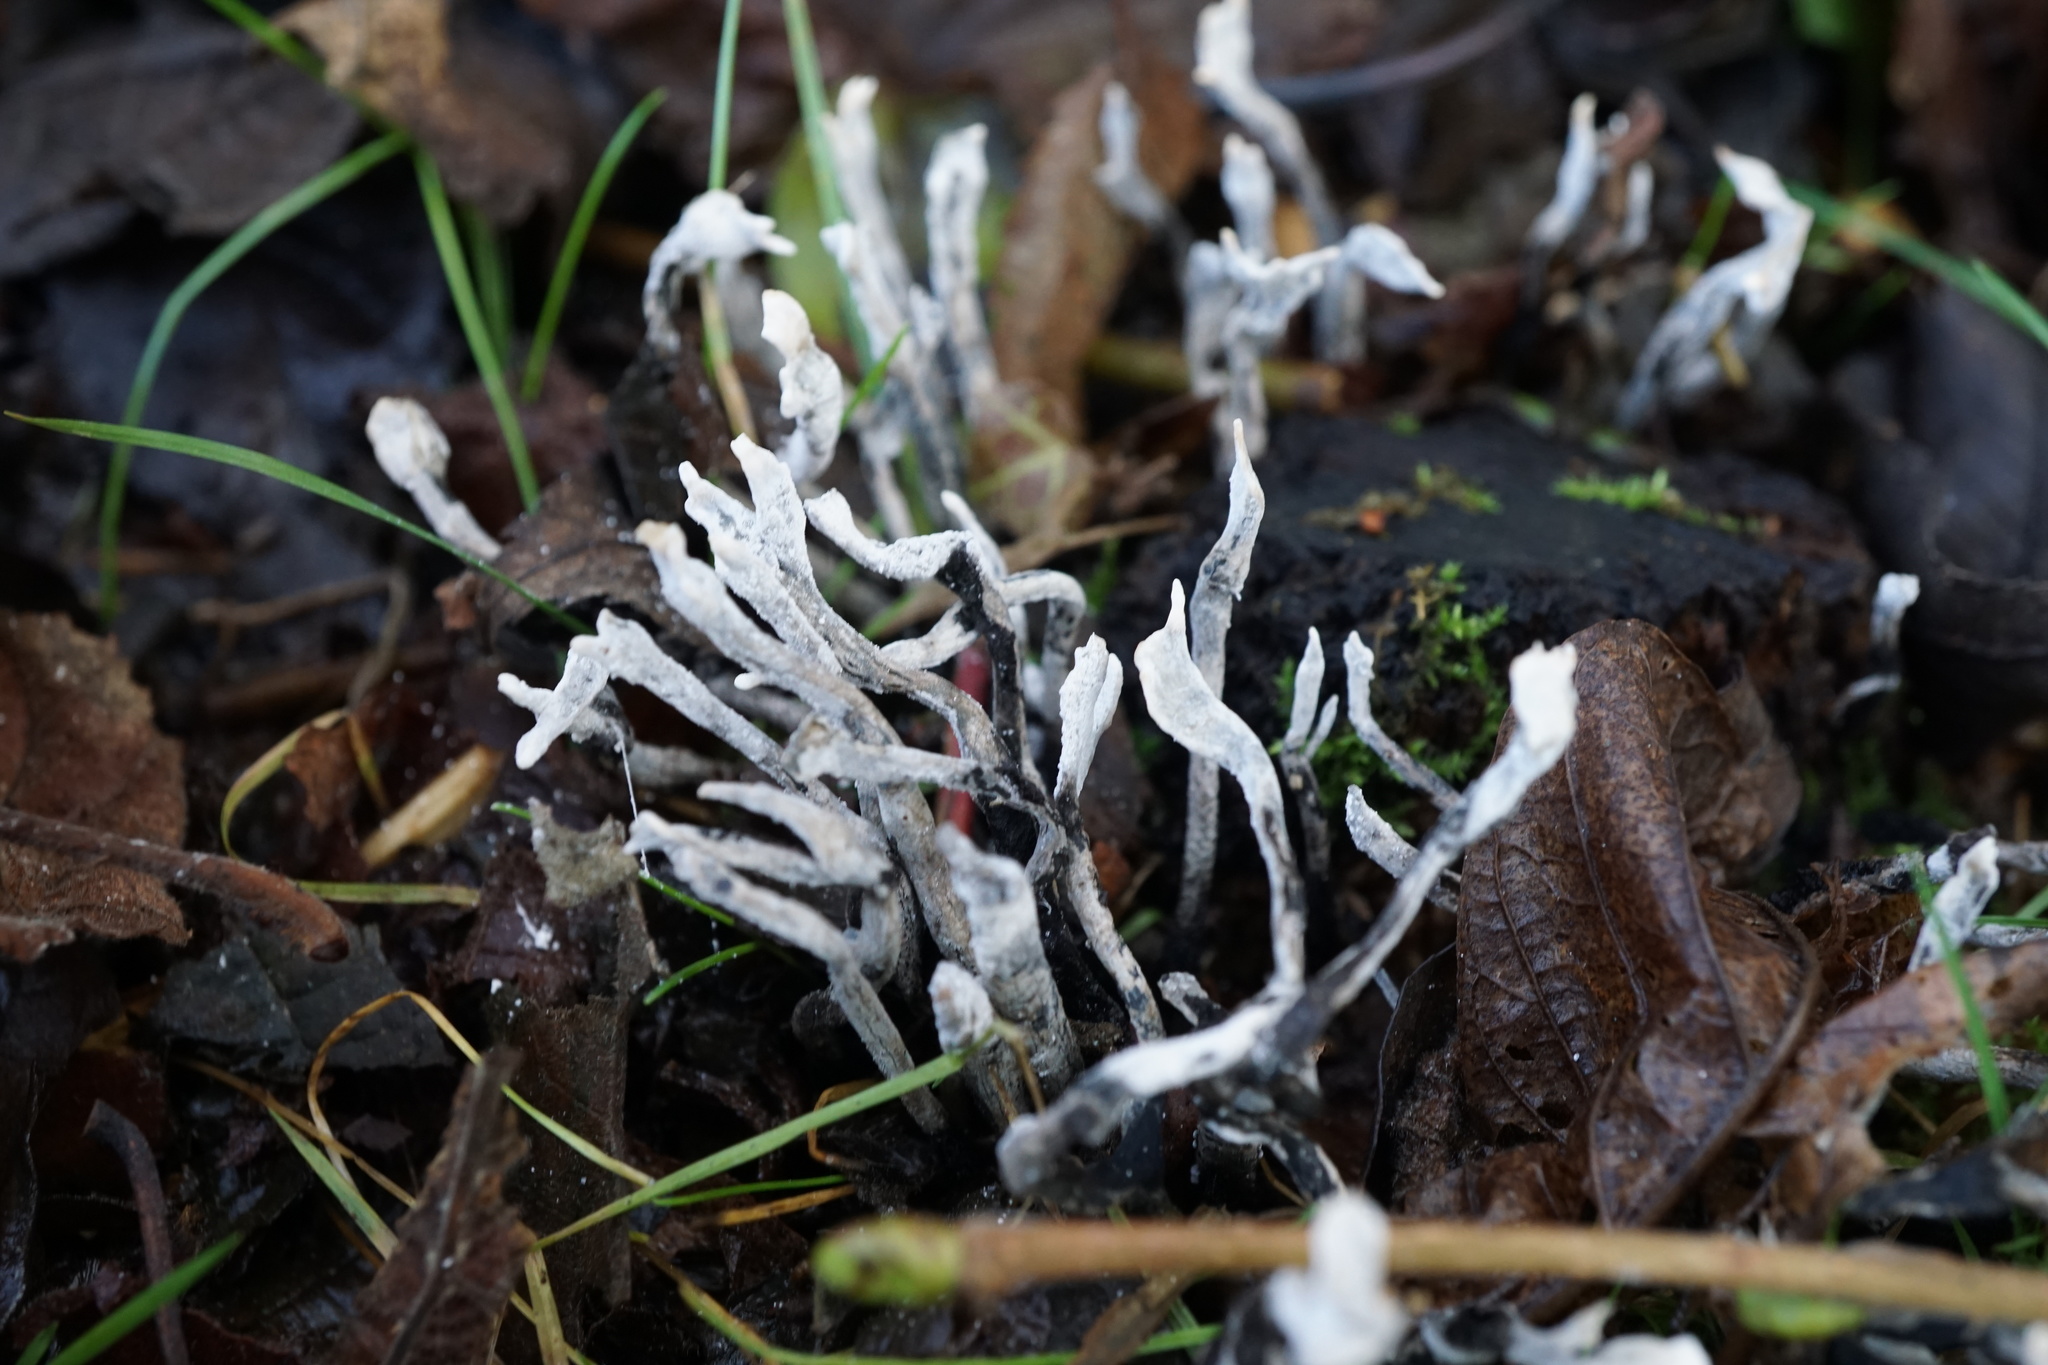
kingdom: Fungi
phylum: Ascomycota
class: Sordariomycetes
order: Xylariales
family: Xylariaceae
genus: Xylaria
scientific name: Xylaria hypoxylon
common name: Candle-snuff fungus
